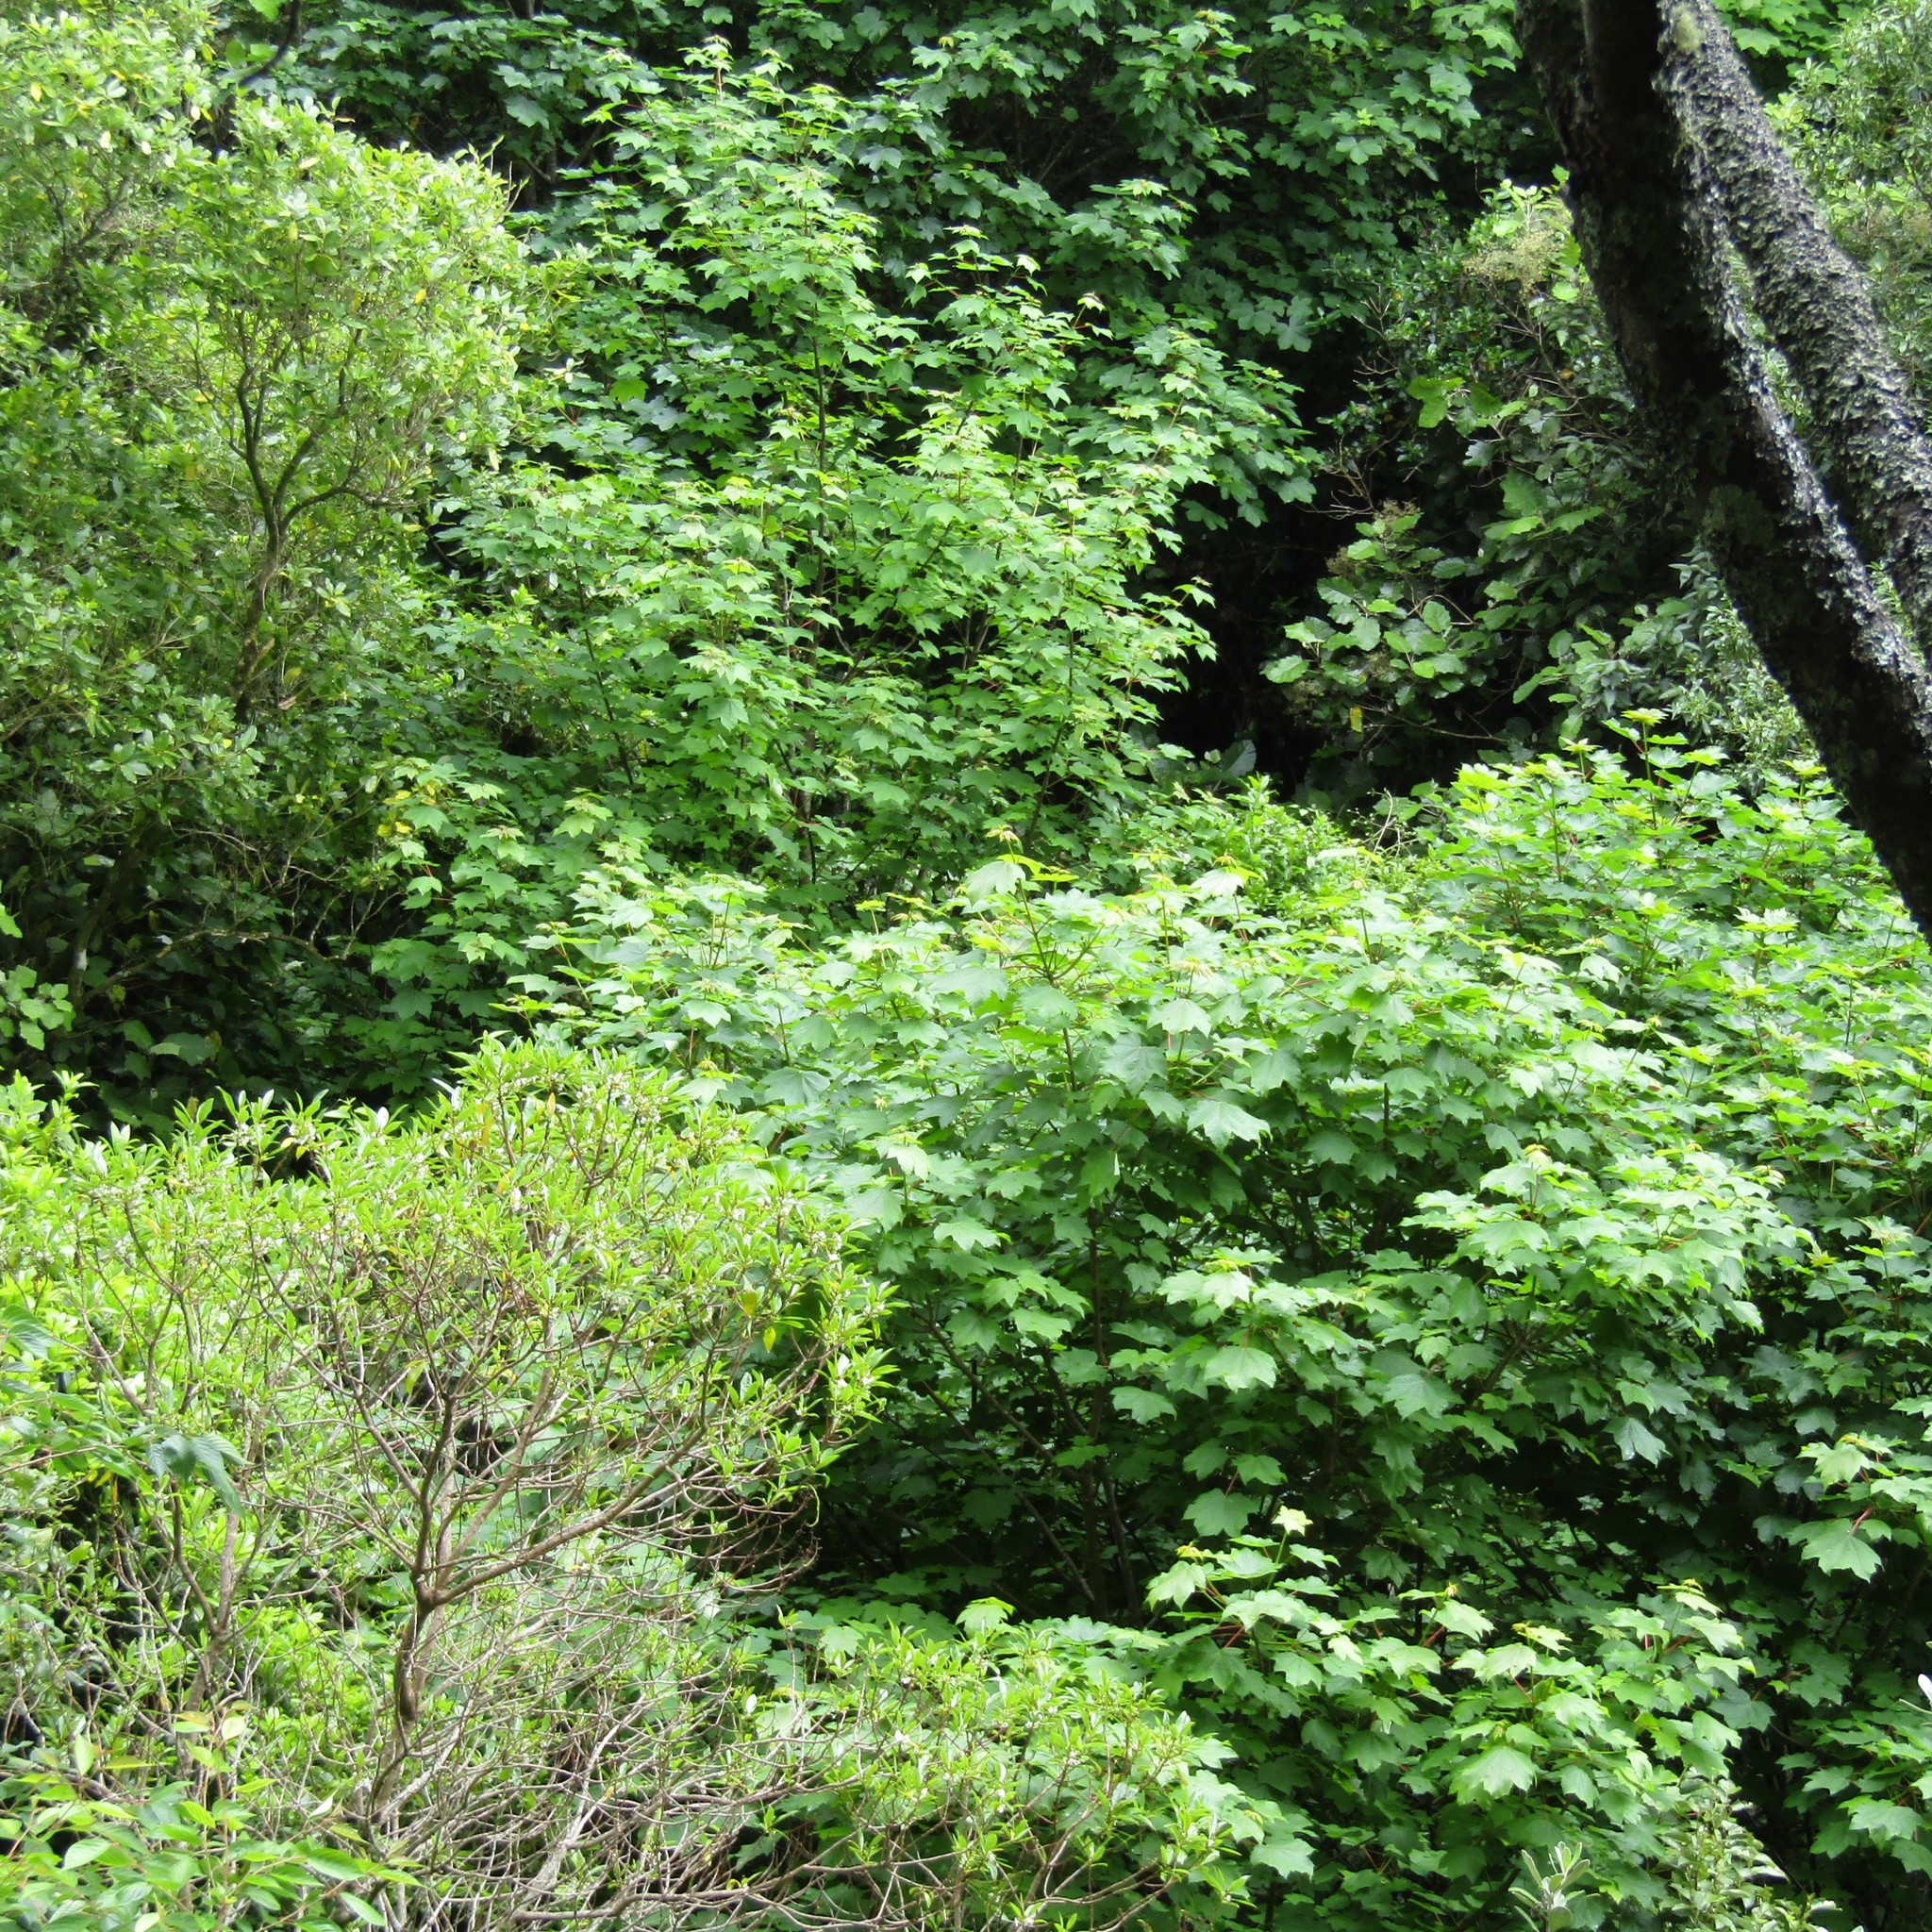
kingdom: Plantae
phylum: Tracheophyta
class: Magnoliopsida
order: Sapindales
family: Sapindaceae
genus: Acer
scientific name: Acer pseudoplatanus
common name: Sycamore
